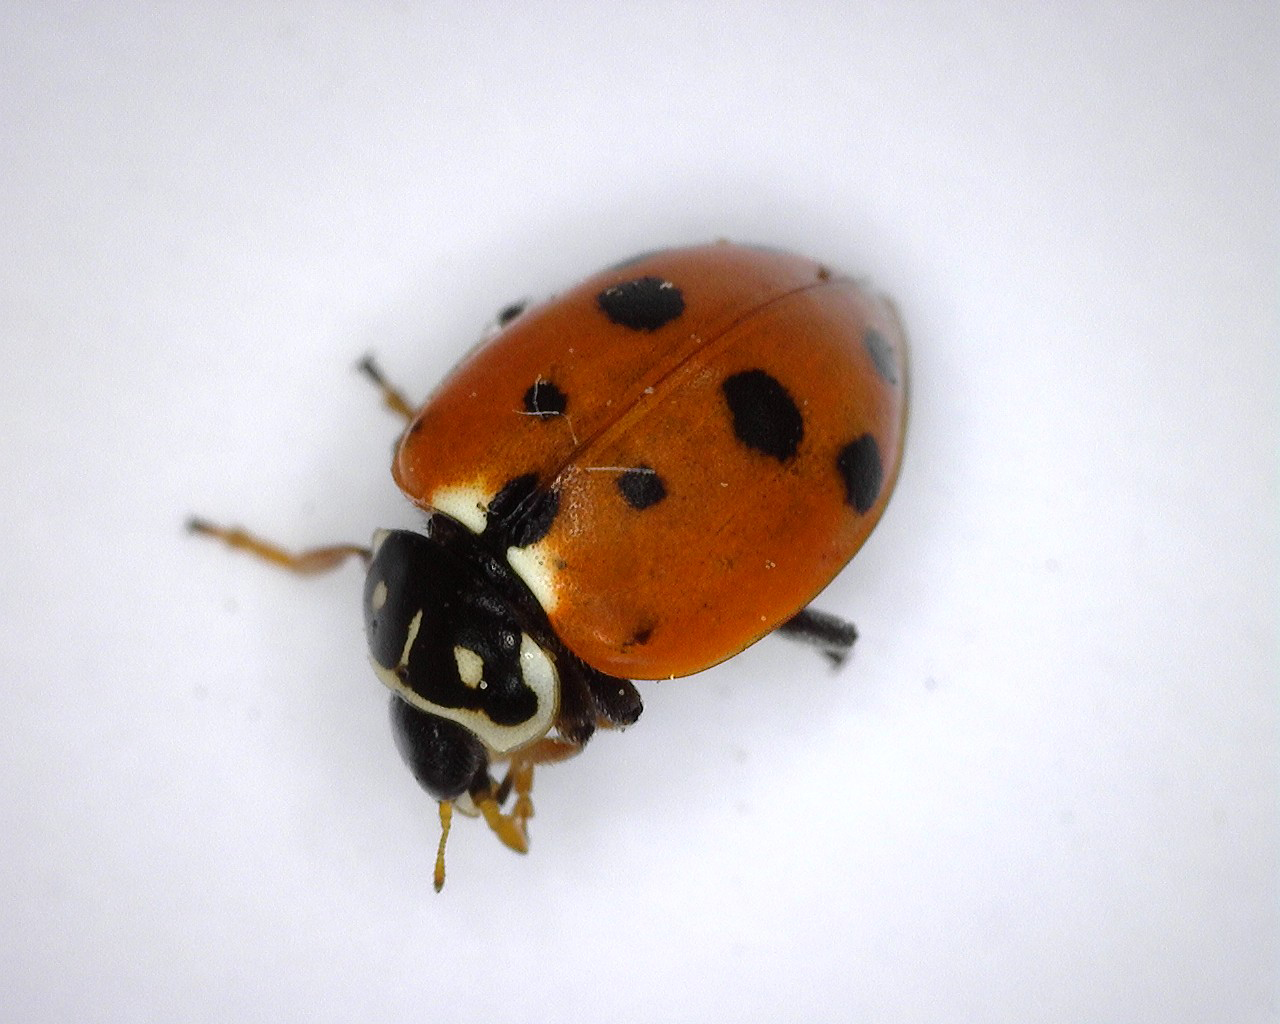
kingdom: Animalia
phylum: Arthropoda
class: Insecta
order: Coleoptera
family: Coccinellidae
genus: Hippodamia
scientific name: Hippodamia variegata
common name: Ladybird beetle
